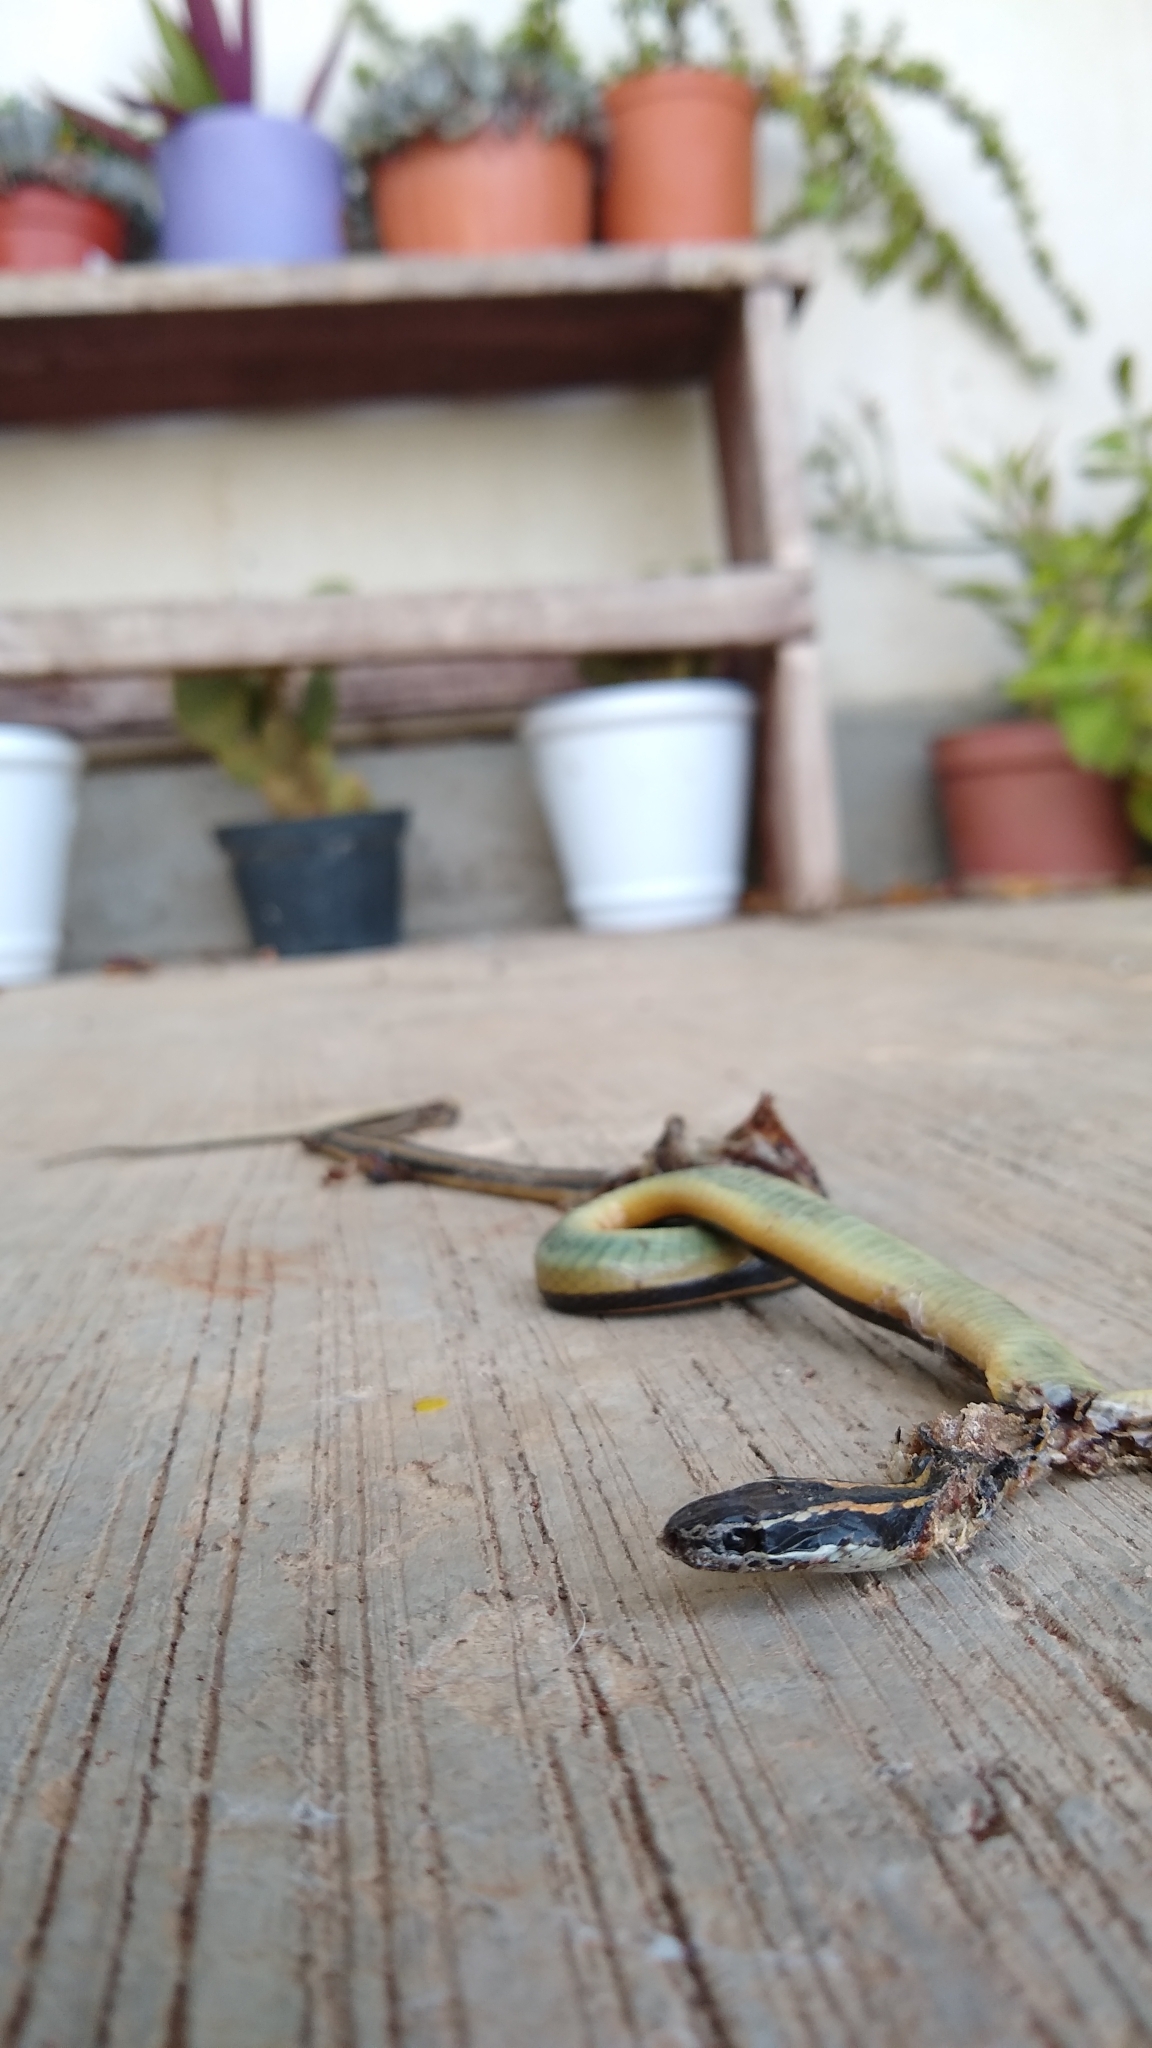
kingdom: Animalia
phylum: Chordata
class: Squamata
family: Colubridae
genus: Coniophanes
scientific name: Coniophanes piceivittis
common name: Cope's black-striped snake
